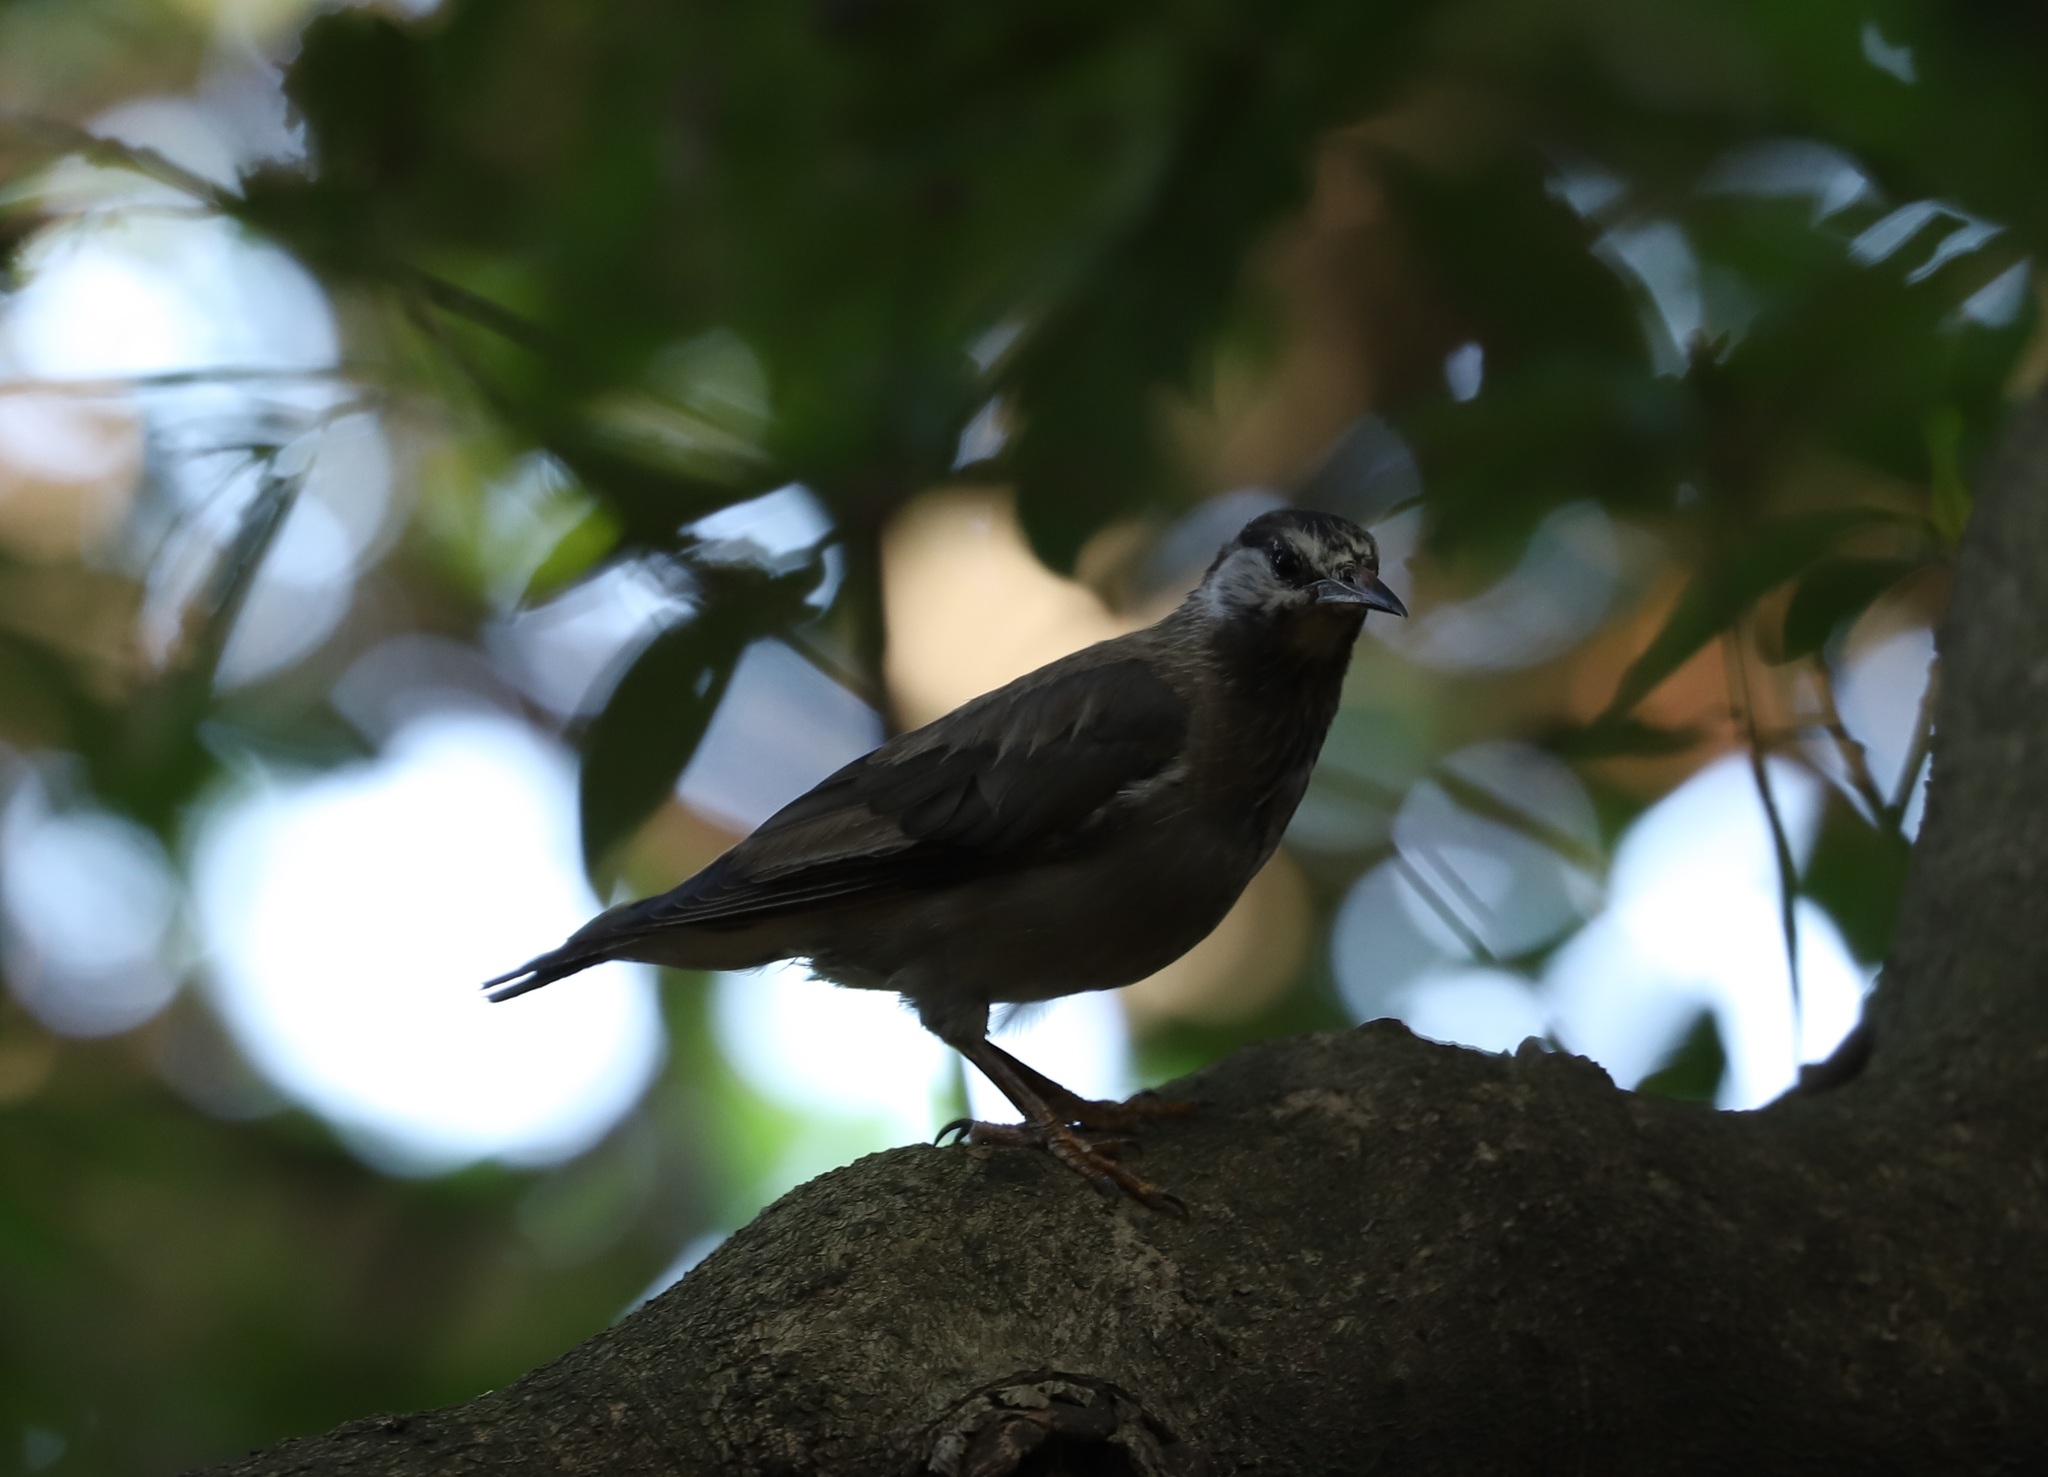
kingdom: Animalia
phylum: Chordata
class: Aves
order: Passeriformes
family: Sturnidae
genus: Spodiopsar
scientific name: Spodiopsar cineraceus
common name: White-cheeked starling
